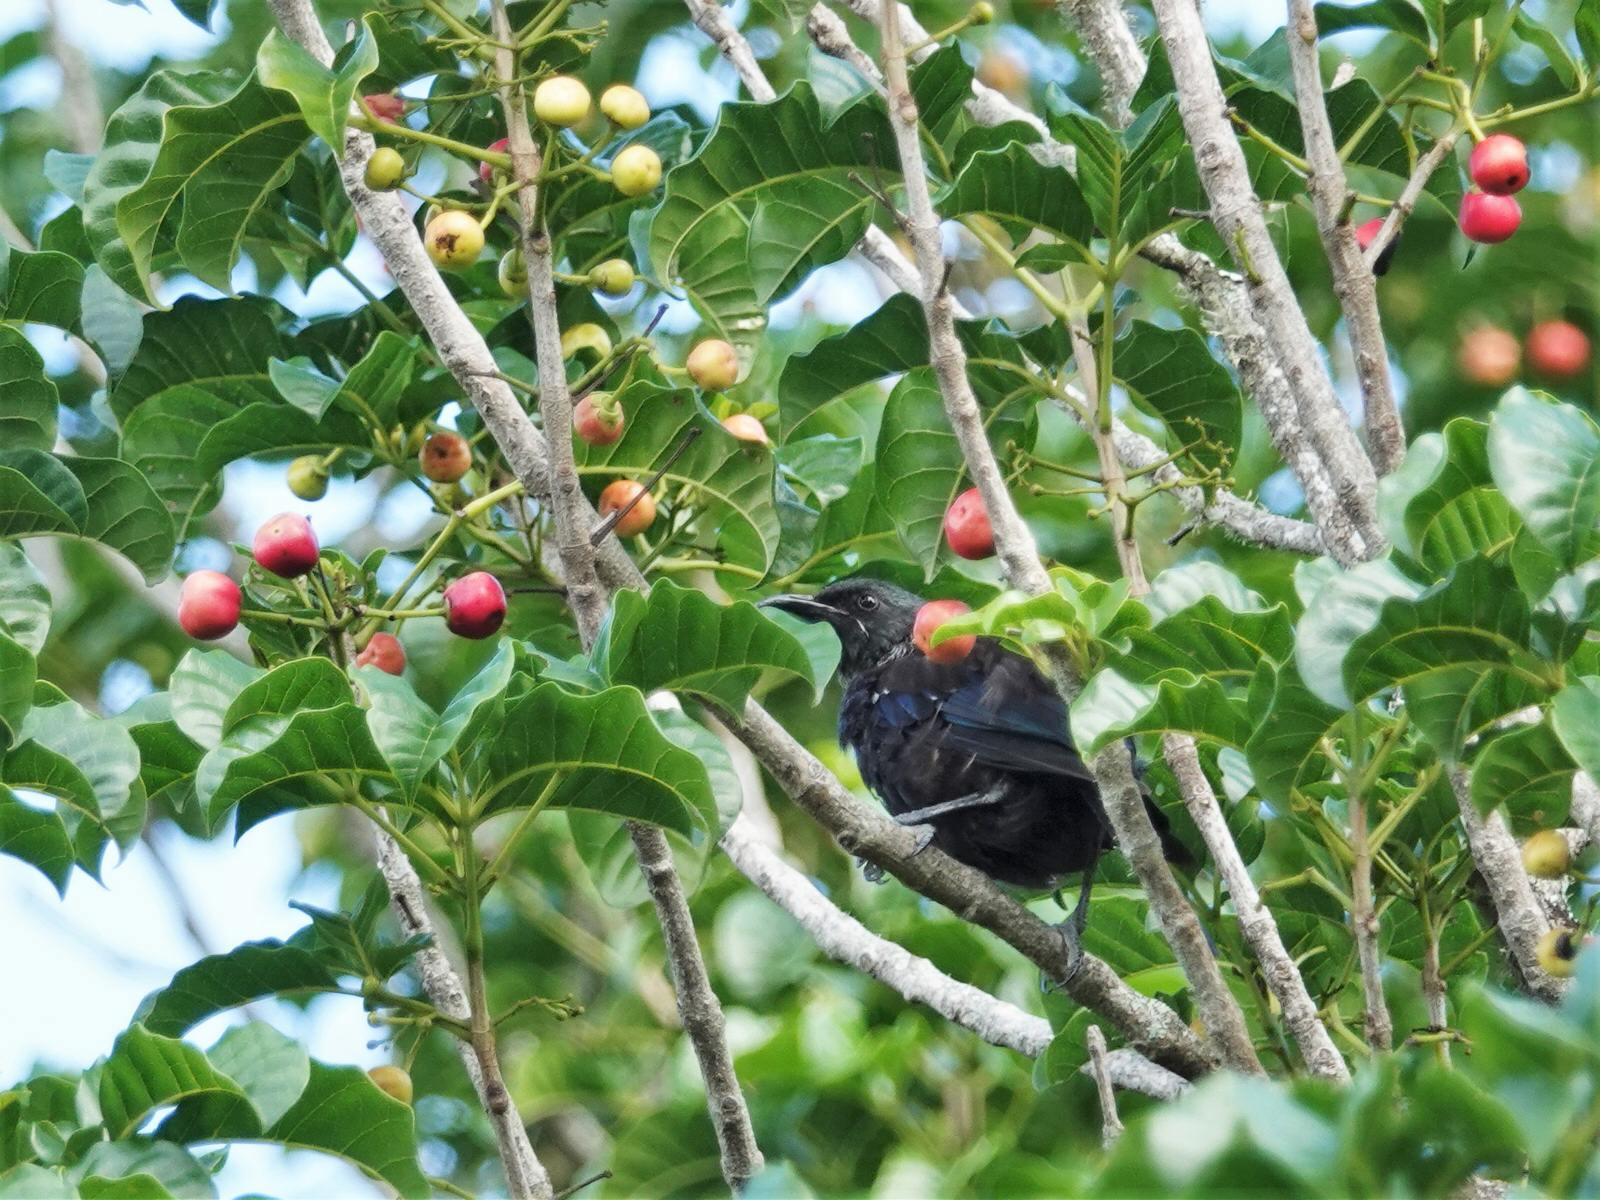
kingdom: Animalia
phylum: Chordata
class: Aves
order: Passeriformes
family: Meliphagidae
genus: Prosthemadera
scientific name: Prosthemadera novaeseelandiae
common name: Tui
